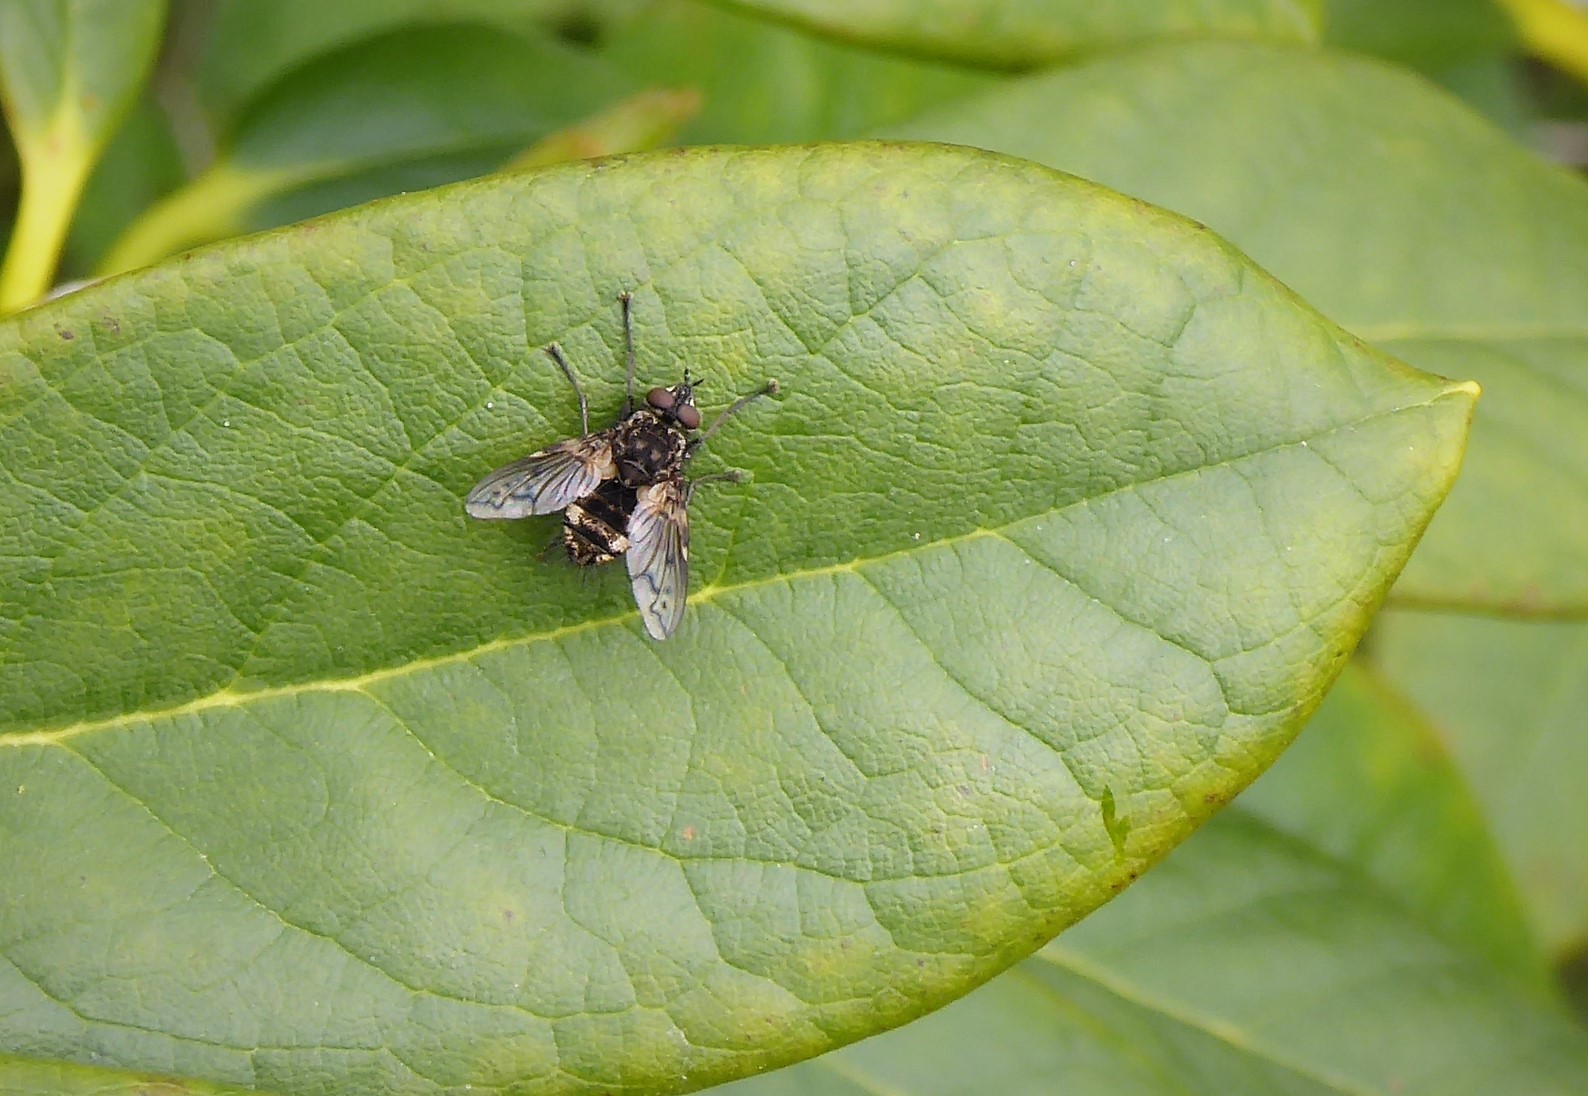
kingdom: Animalia
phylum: Arthropoda
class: Insecta
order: Diptera
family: Tachinidae
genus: Mallochomacquartia
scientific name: Mallochomacquartia vexata
